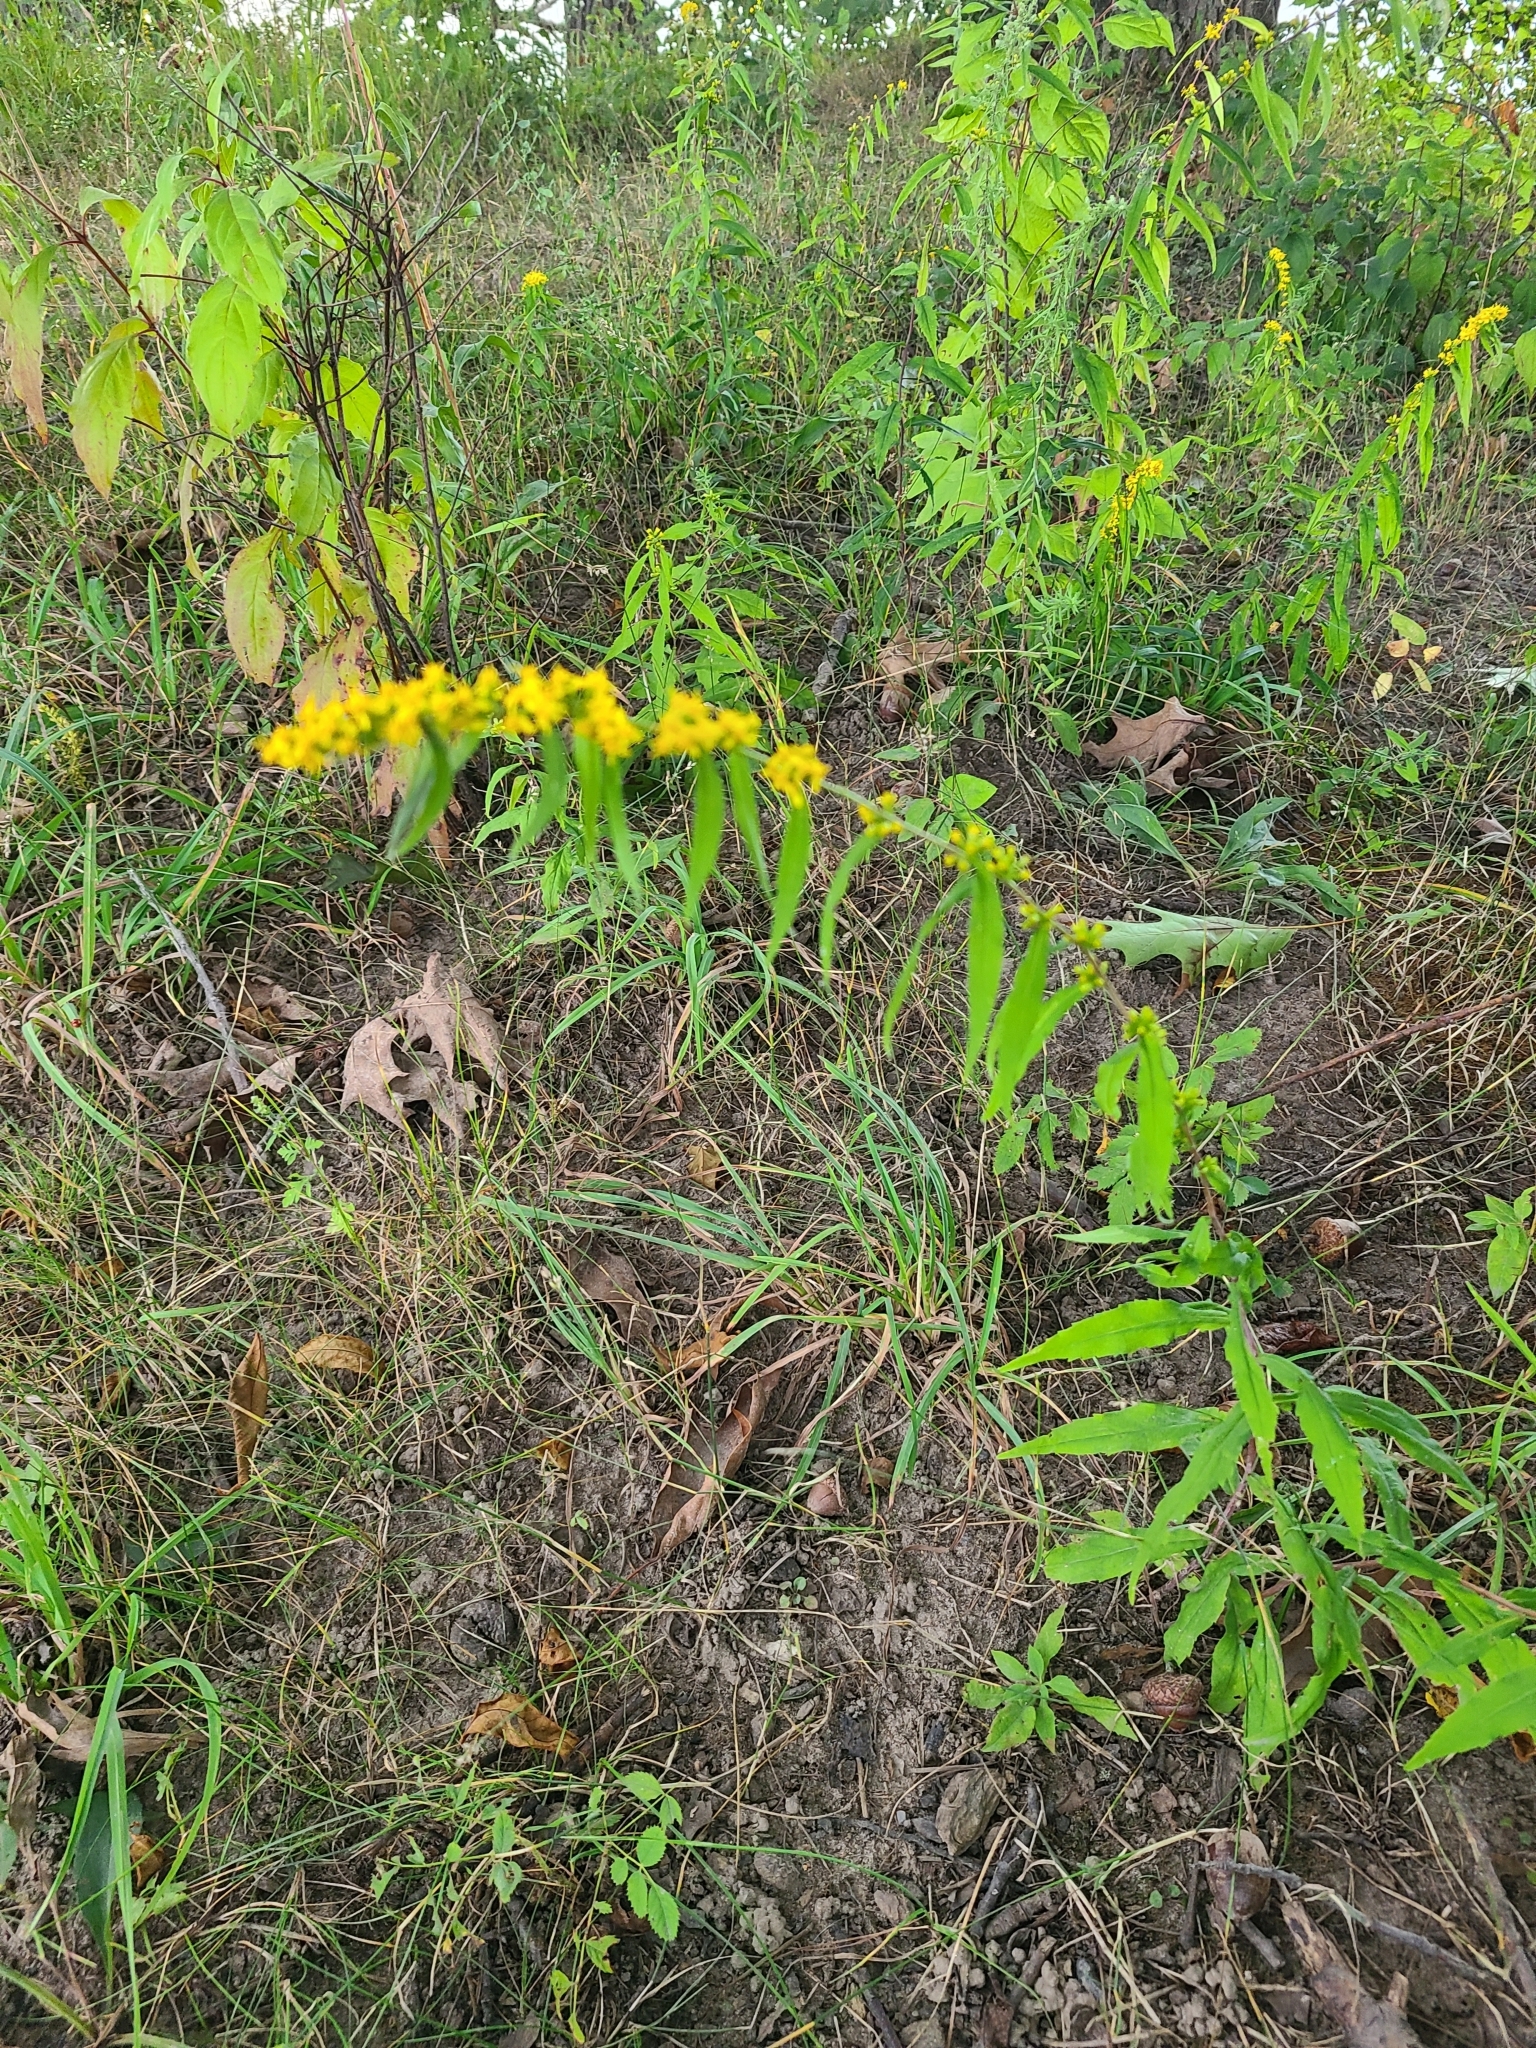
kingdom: Plantae
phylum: Tracheophyta
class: Magnoliopsida
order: Asterales
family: Asteraceae
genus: Solidago
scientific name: Solidago caesia
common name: Woodland goldenrod
